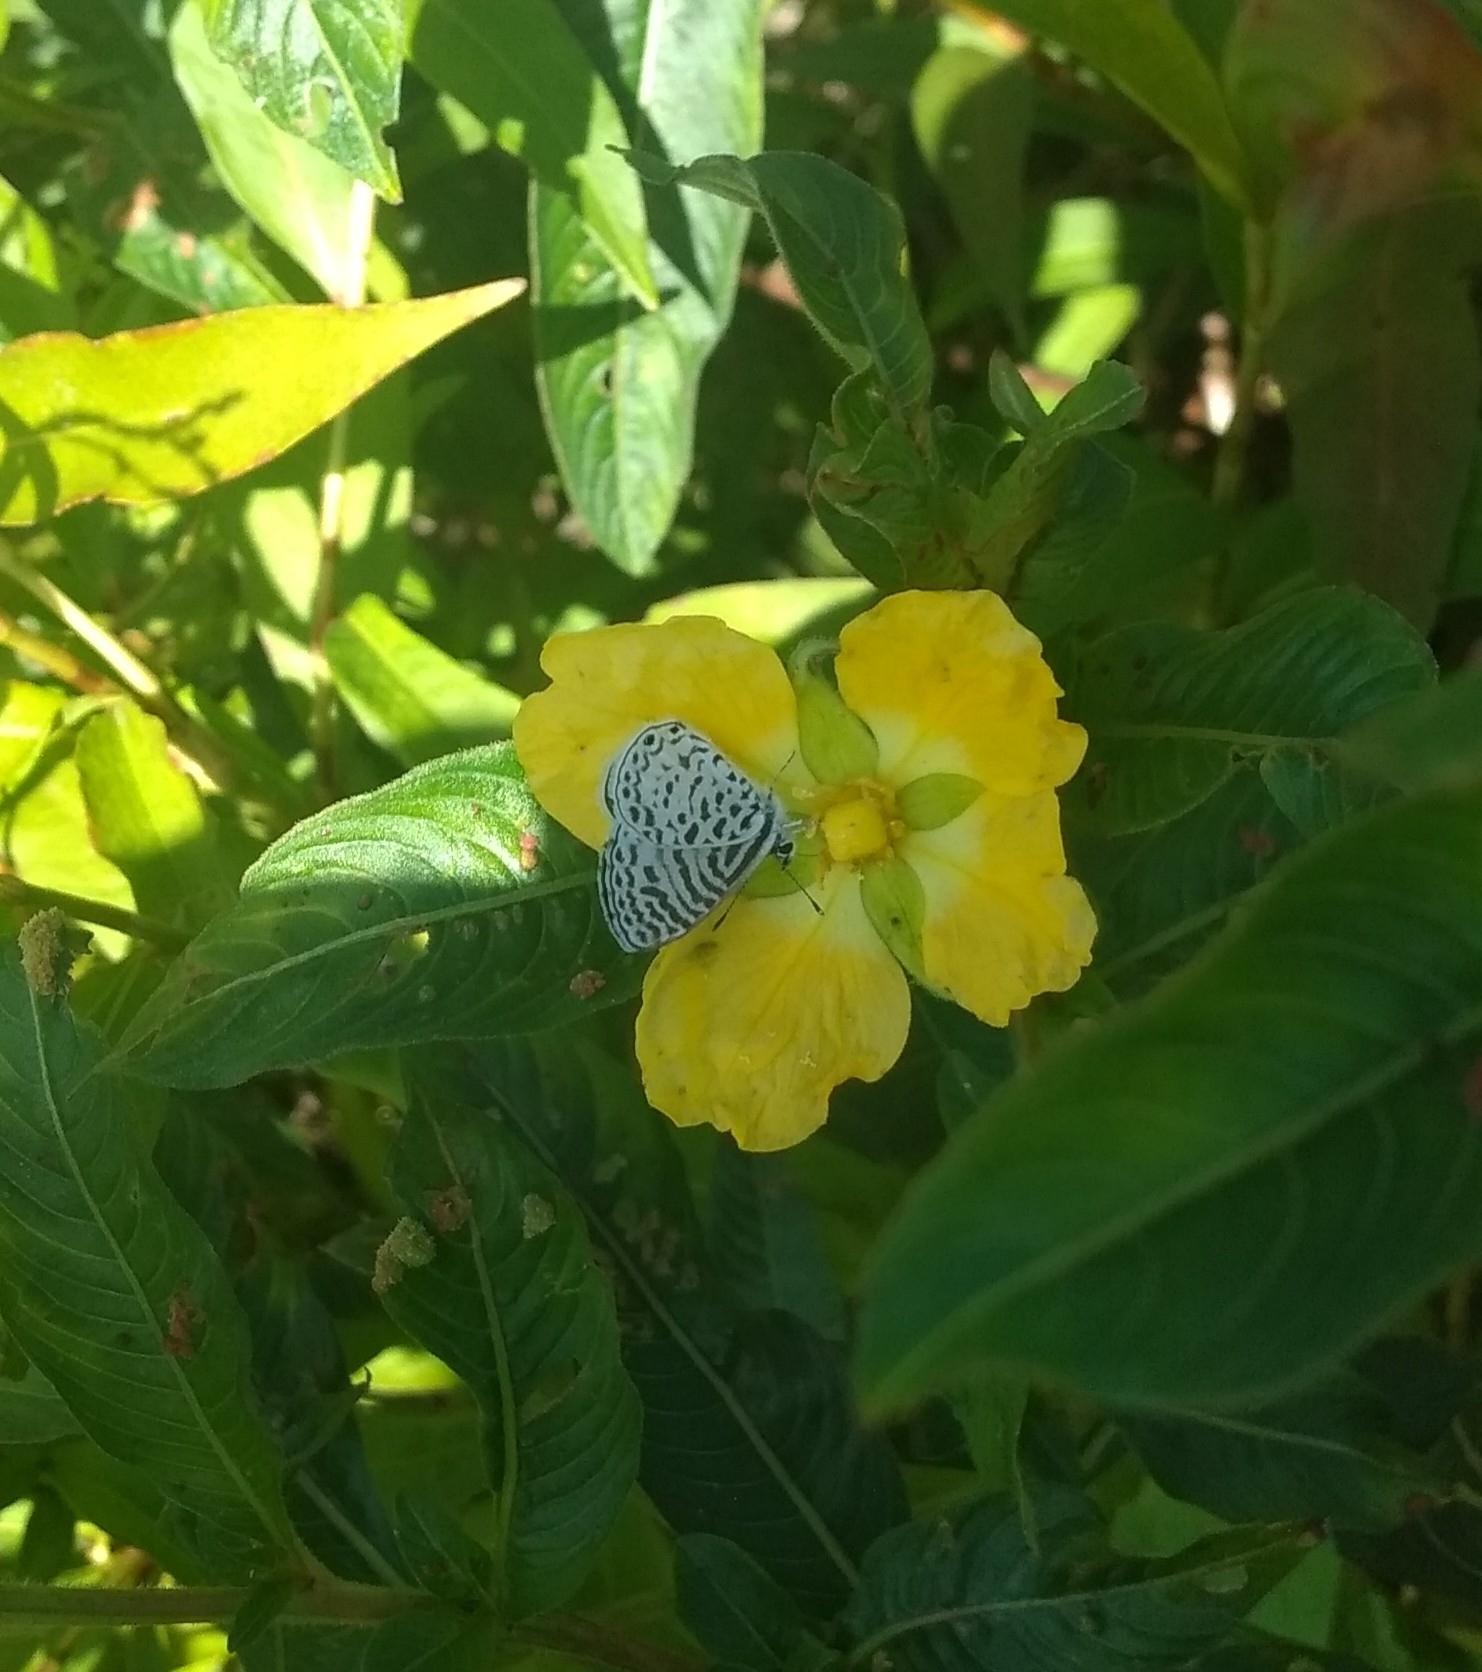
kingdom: Animalia
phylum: Arthropoda
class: Insecta
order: Lepidoptera
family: Lycaenidae
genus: Leptotes
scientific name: Leptotes cassius
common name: Cassius blue
